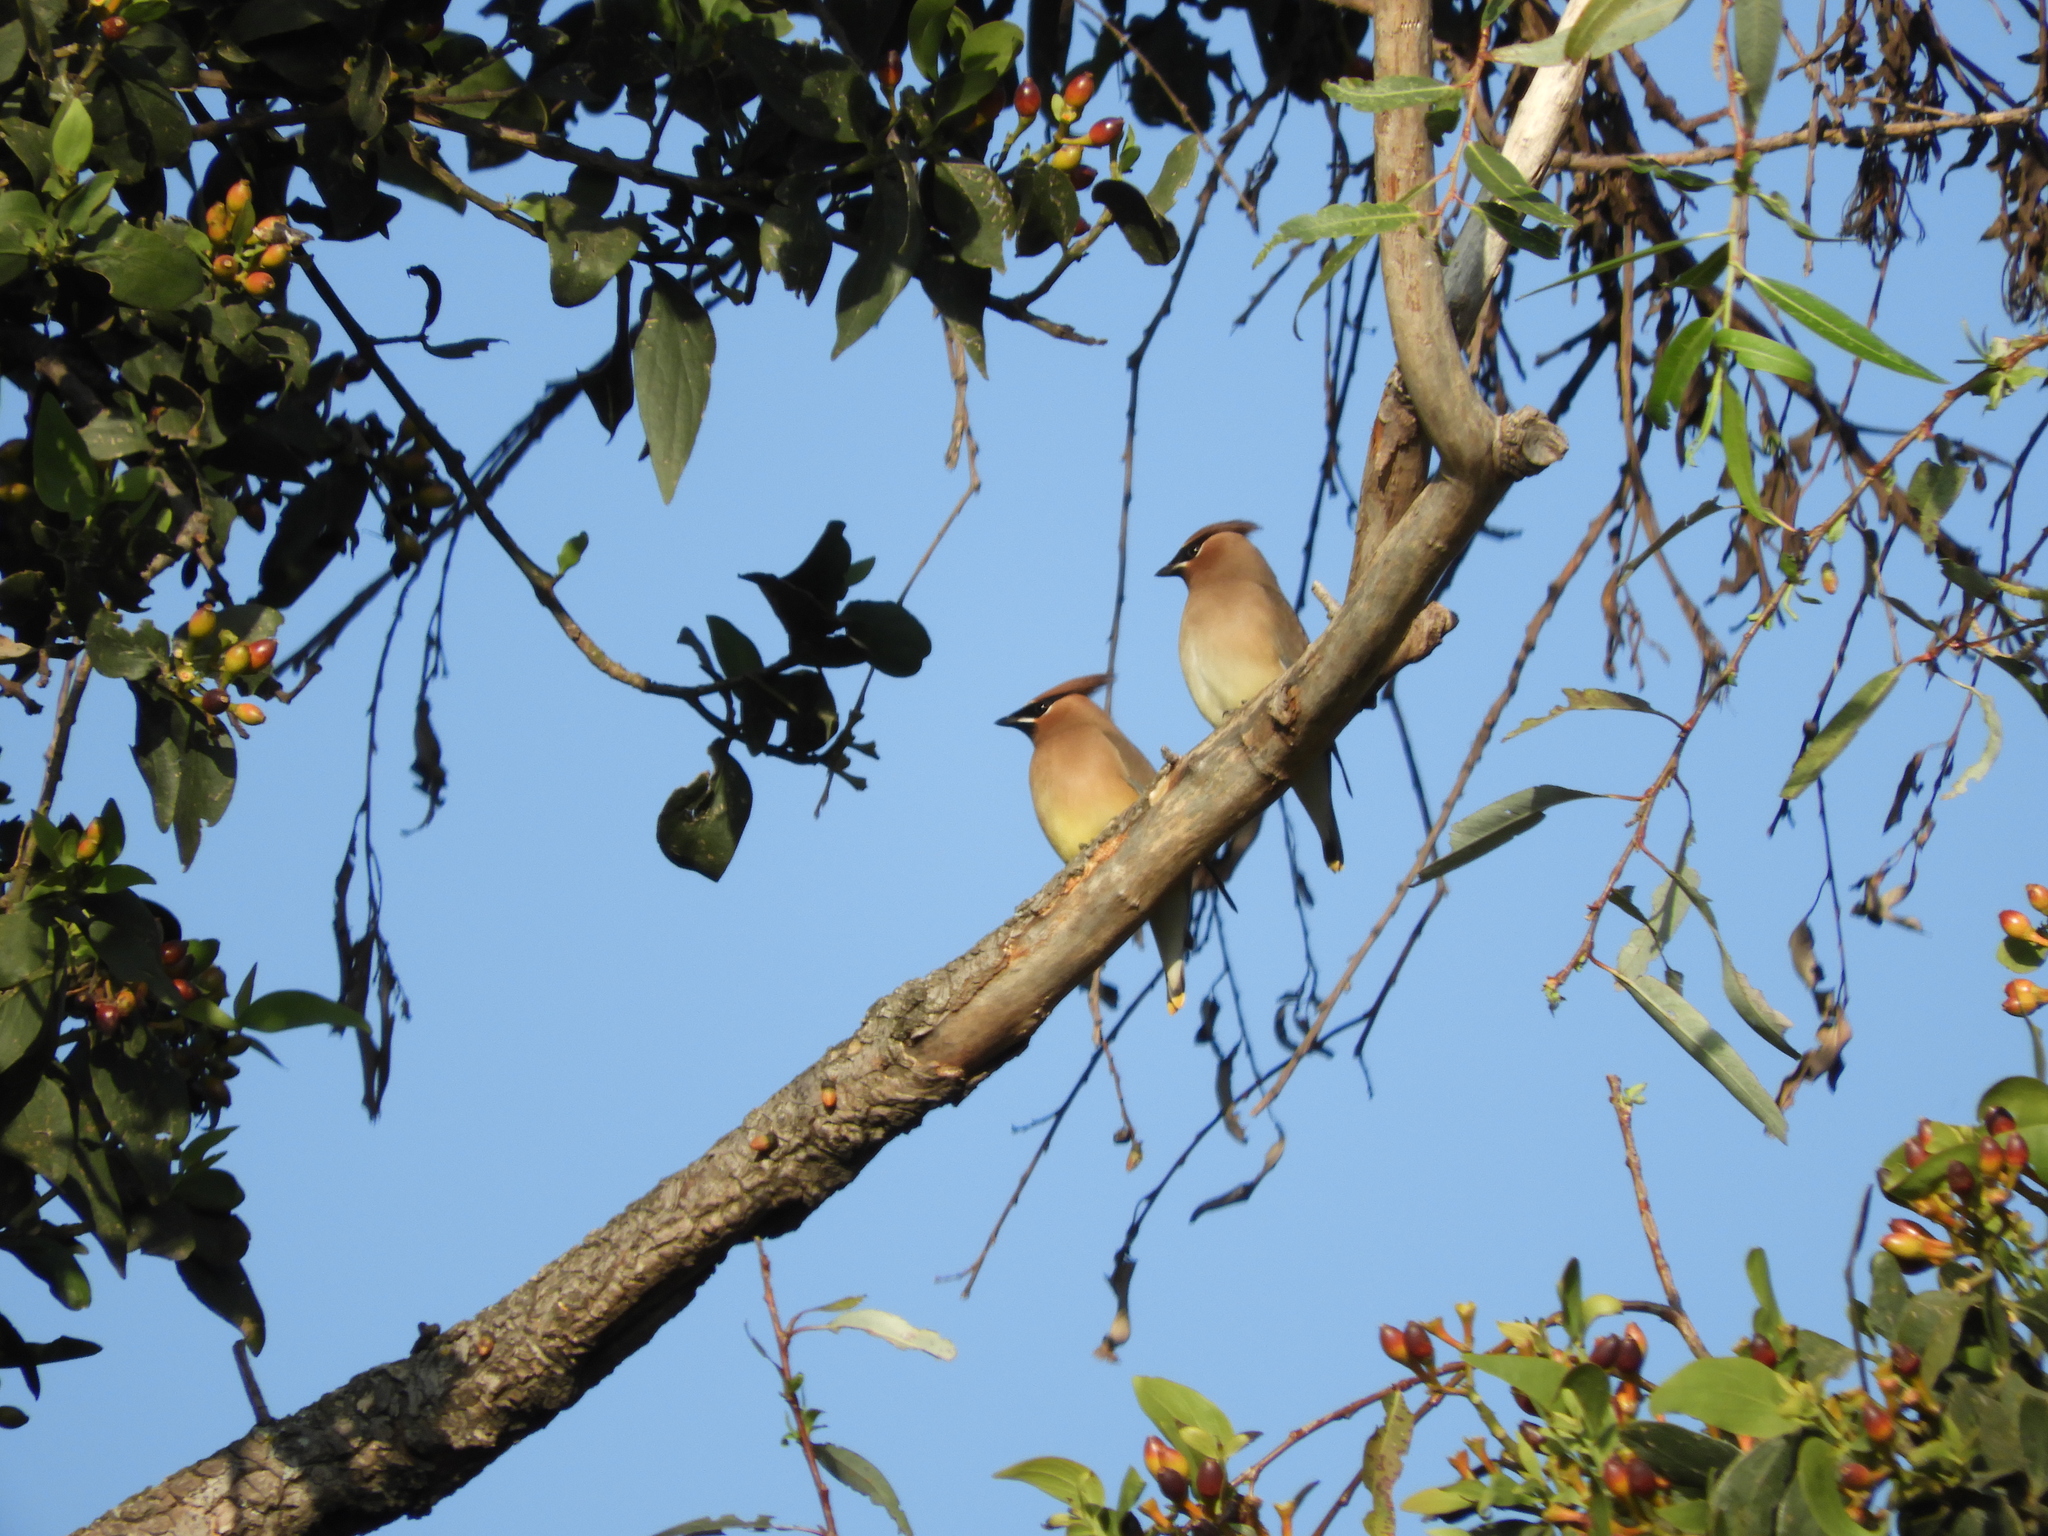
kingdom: Animalia
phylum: Chordata
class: Aves
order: Passeriformes
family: Bombycillidae
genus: Bombycilla
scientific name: Bombycilla cedrorum
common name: Cedar waxwing
